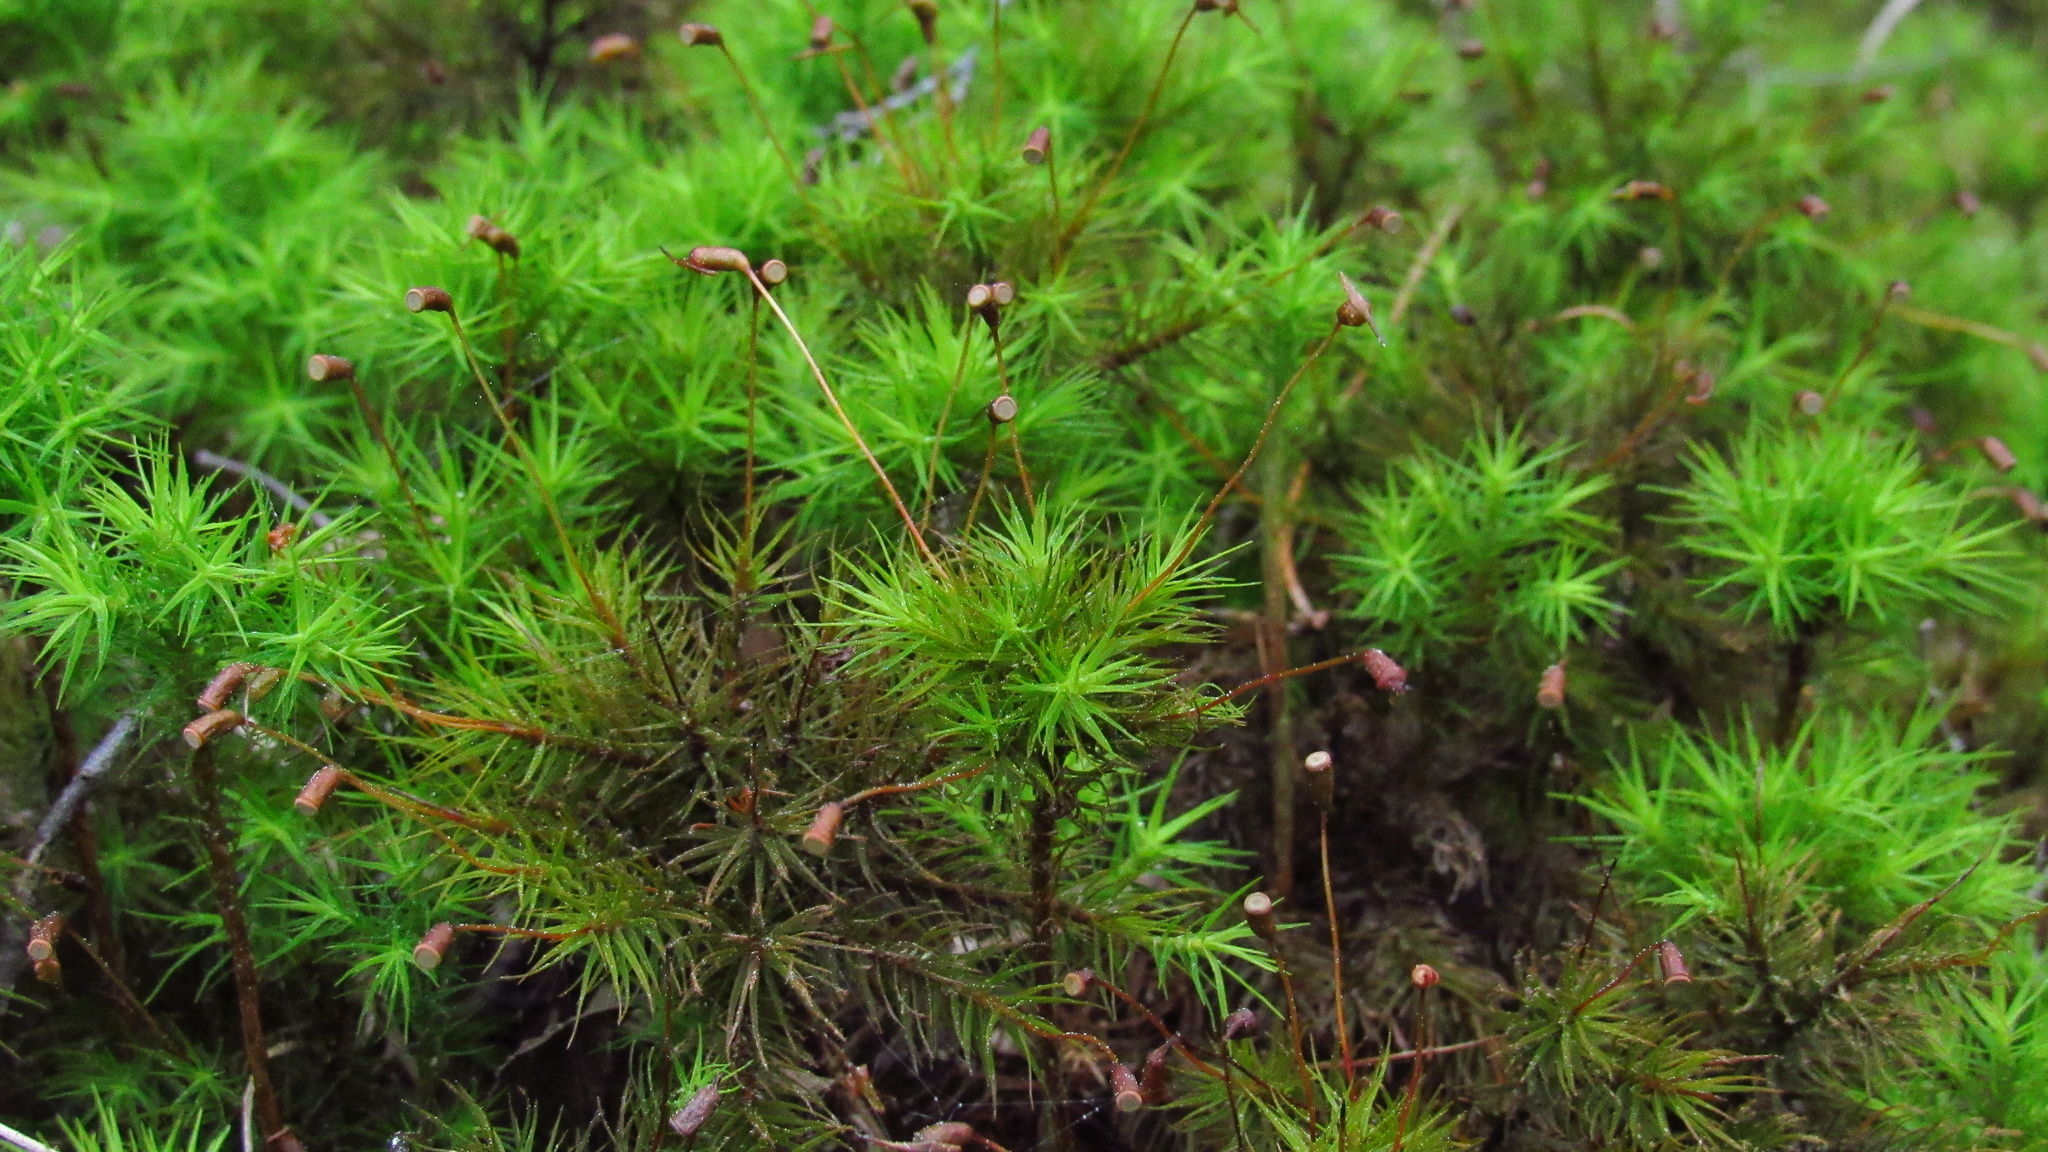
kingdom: Plantae
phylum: Bryophyta
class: Polytrichopsida
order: Polytrichales
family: Polytrichaceae
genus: Dendroligotrichum
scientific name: Dendroligotrichum dendroides
